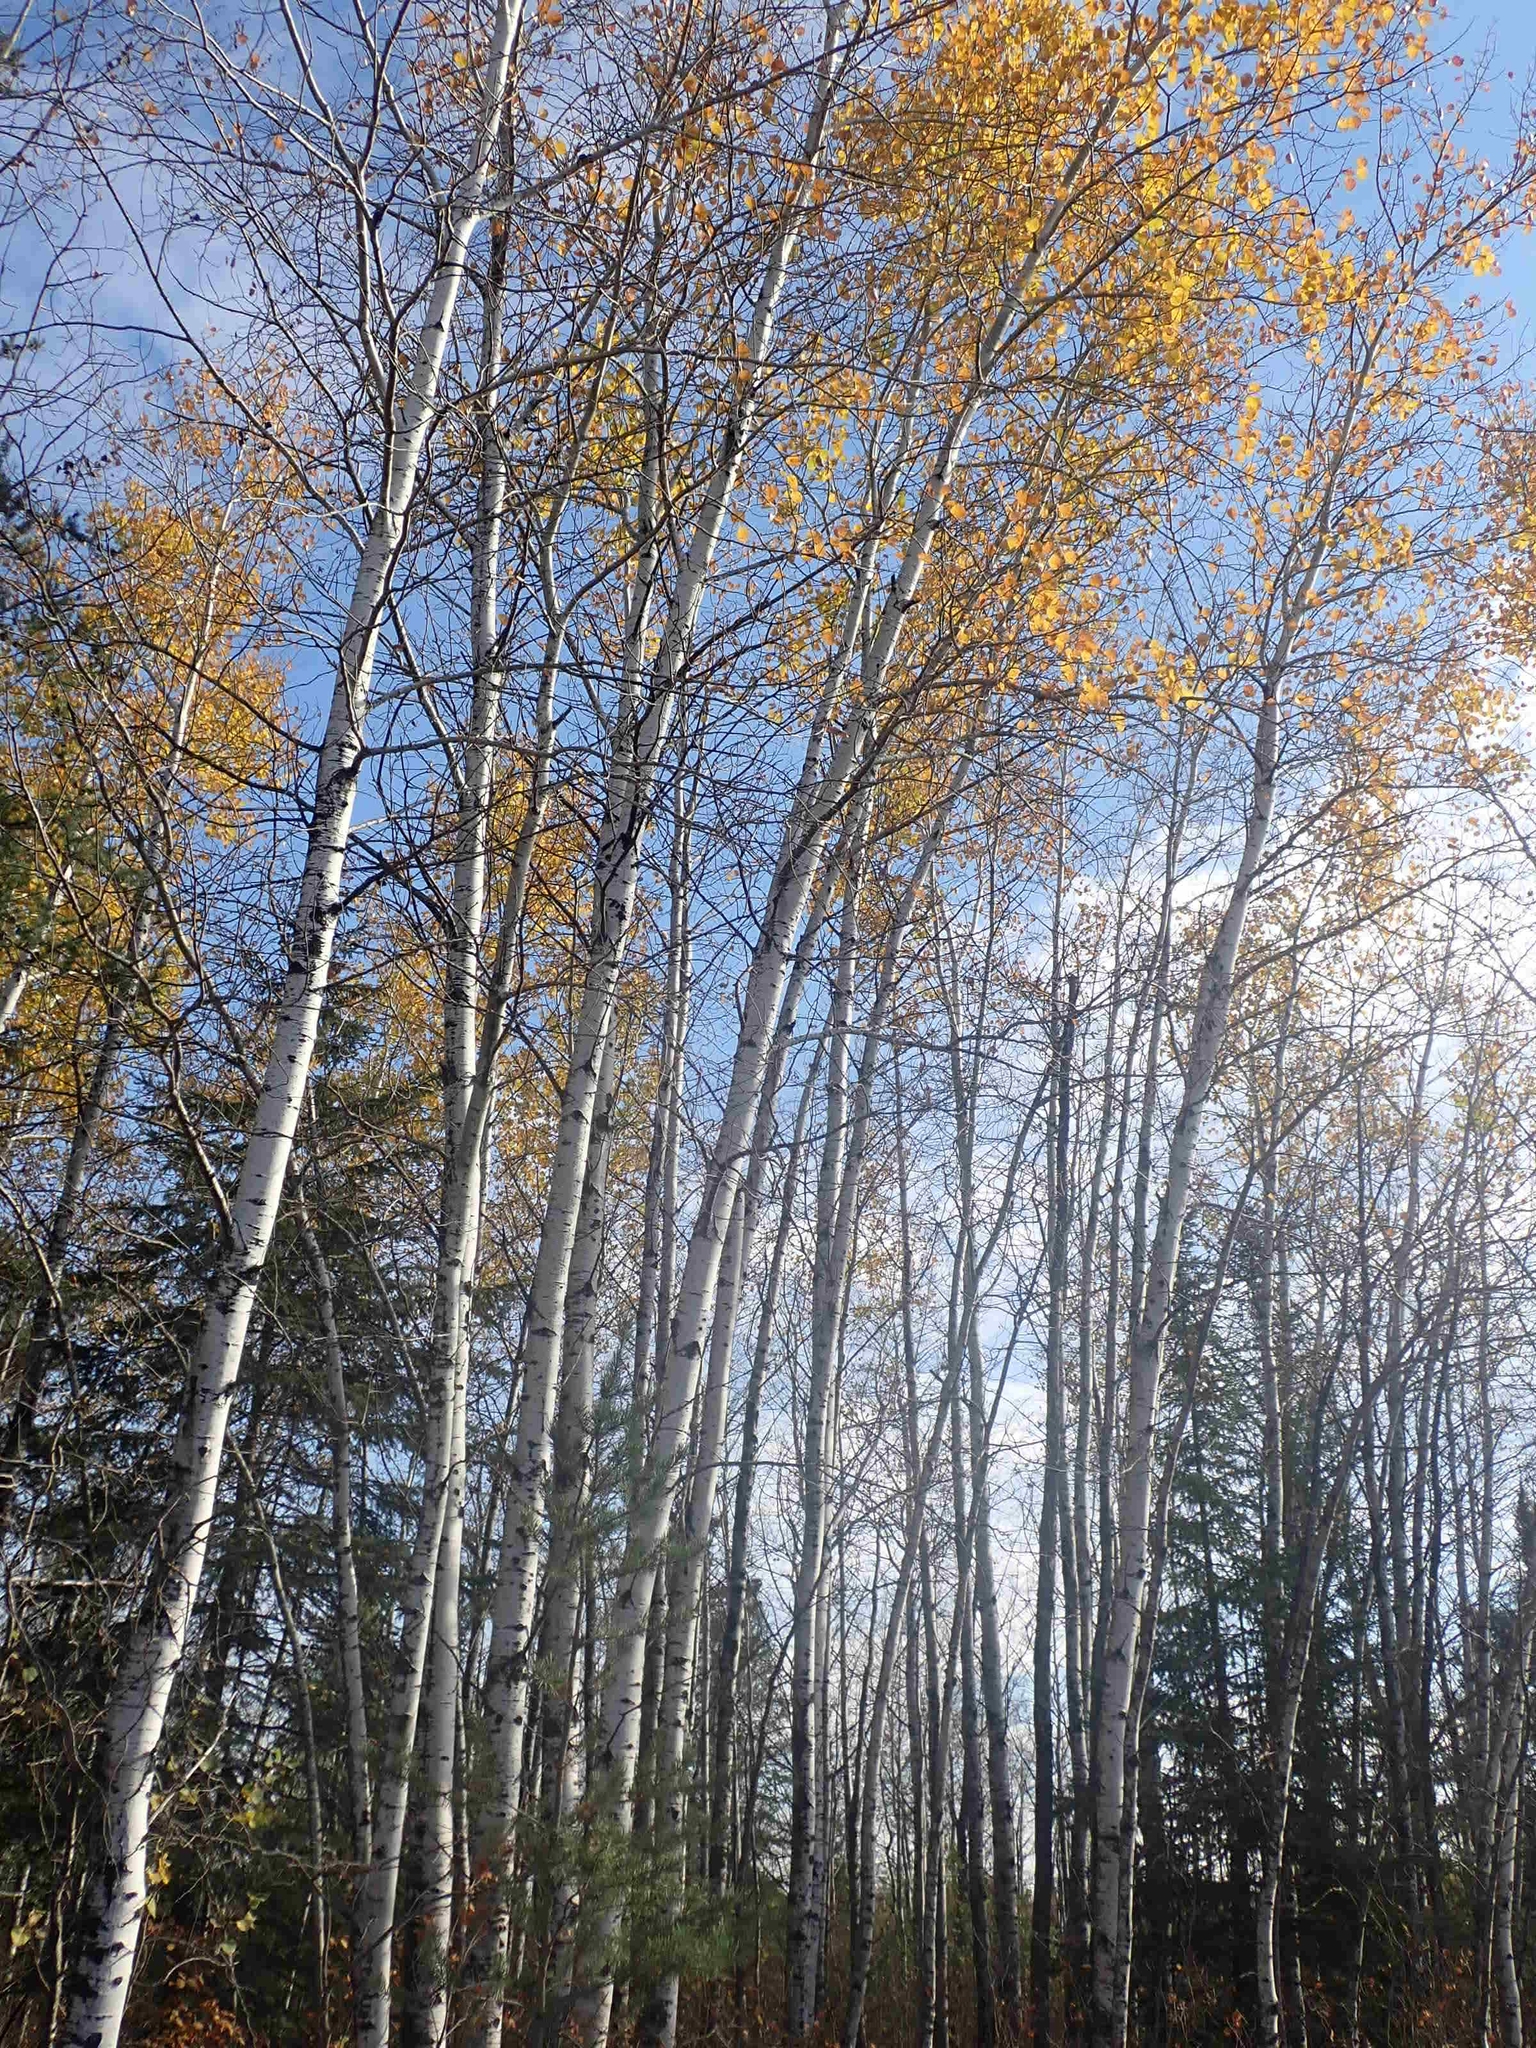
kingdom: Plantae
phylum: Tracheophyta
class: Magnoliopsida
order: Malpighiales
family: Salicaceae
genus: Populus
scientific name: Populus tremuloides
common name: Quaking aspen
